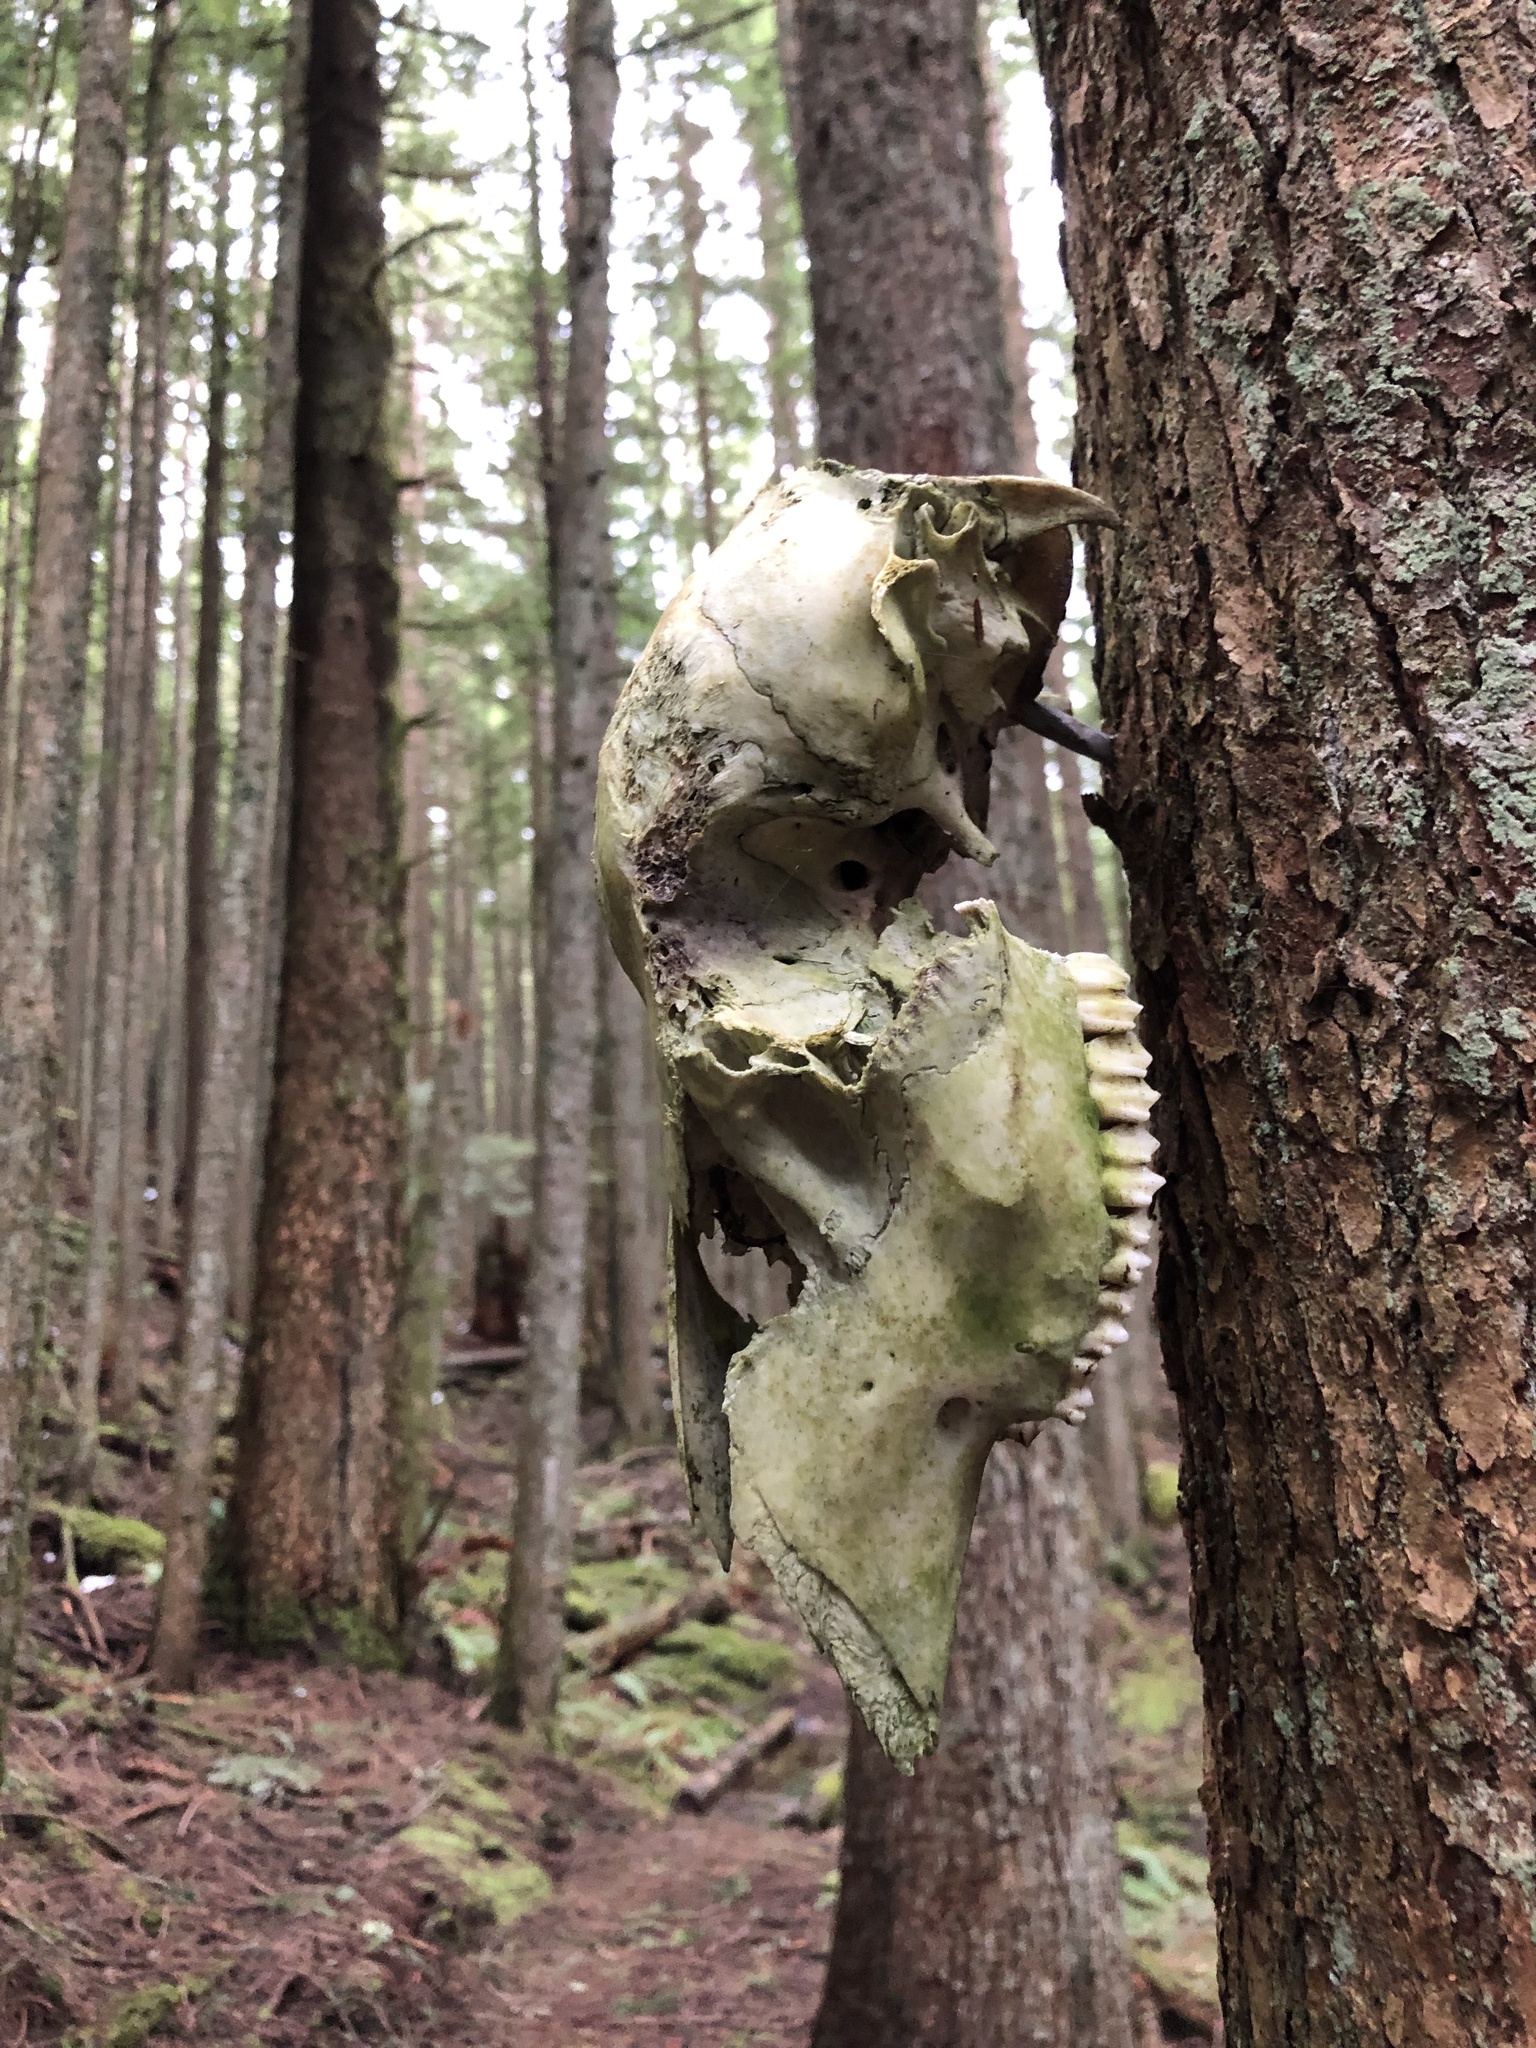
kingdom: Animalia
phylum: Chordata
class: Mammalia
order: Artiodactyla
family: Cervidae
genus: Odocoileus
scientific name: Odocoileus hemionus
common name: Mule deer
